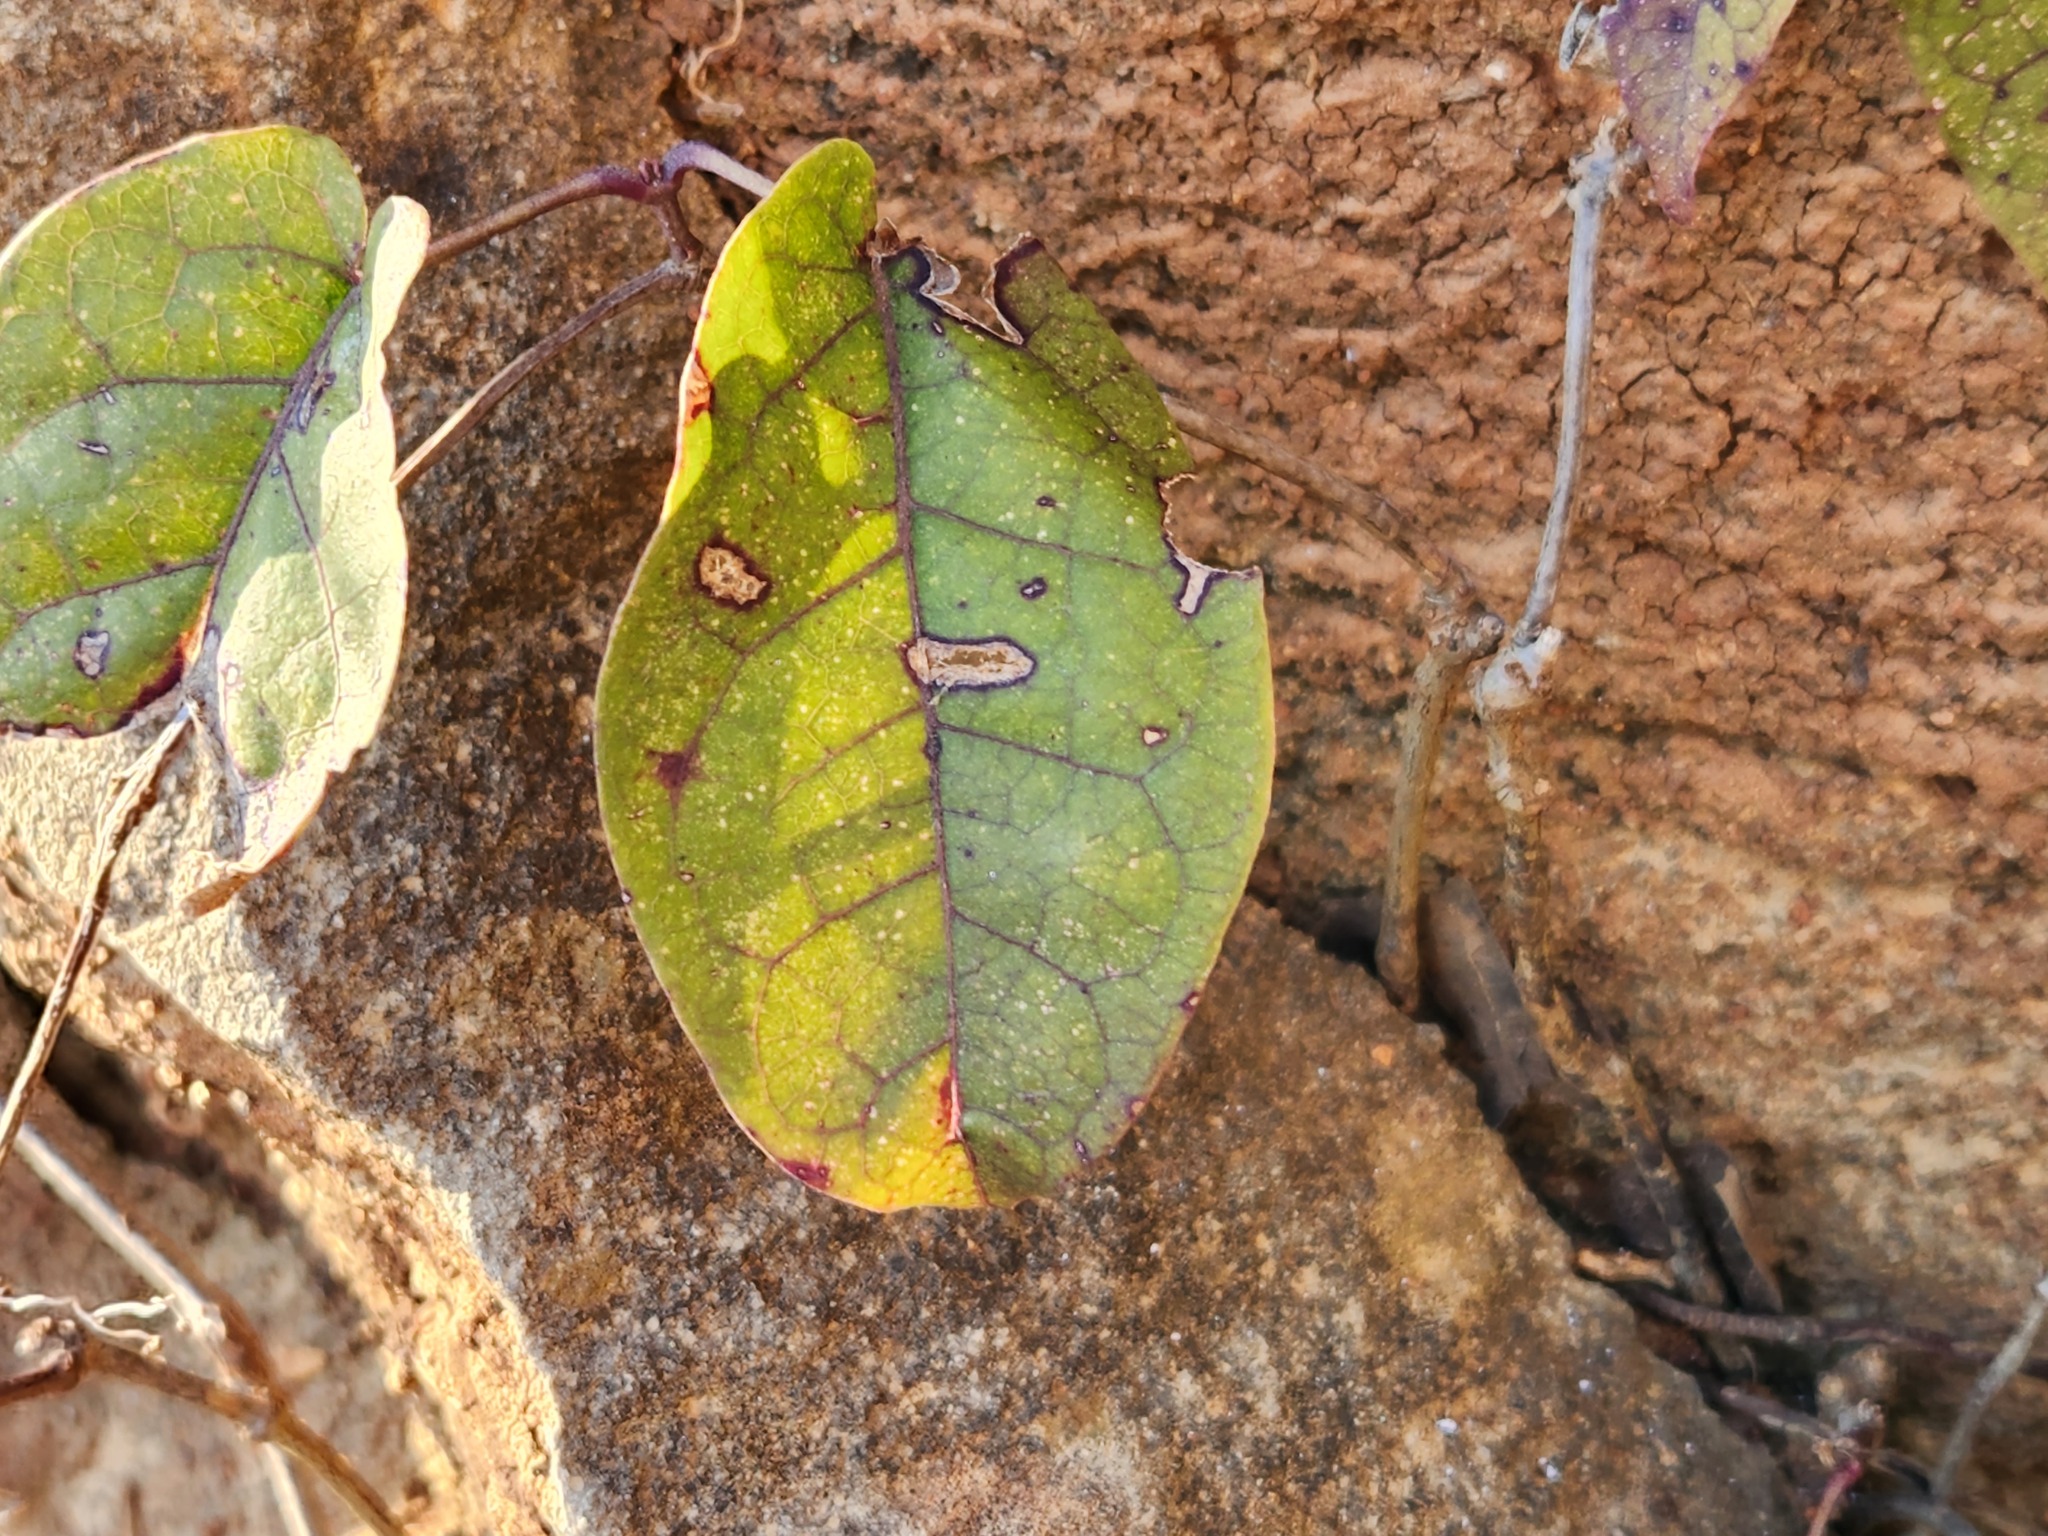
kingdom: Plantae
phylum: Tracheophyta
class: Magnoliopsida
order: Lamiales
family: Bignoniaceae
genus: Bignonia
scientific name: Bignonia capreolata
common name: Crossvine
